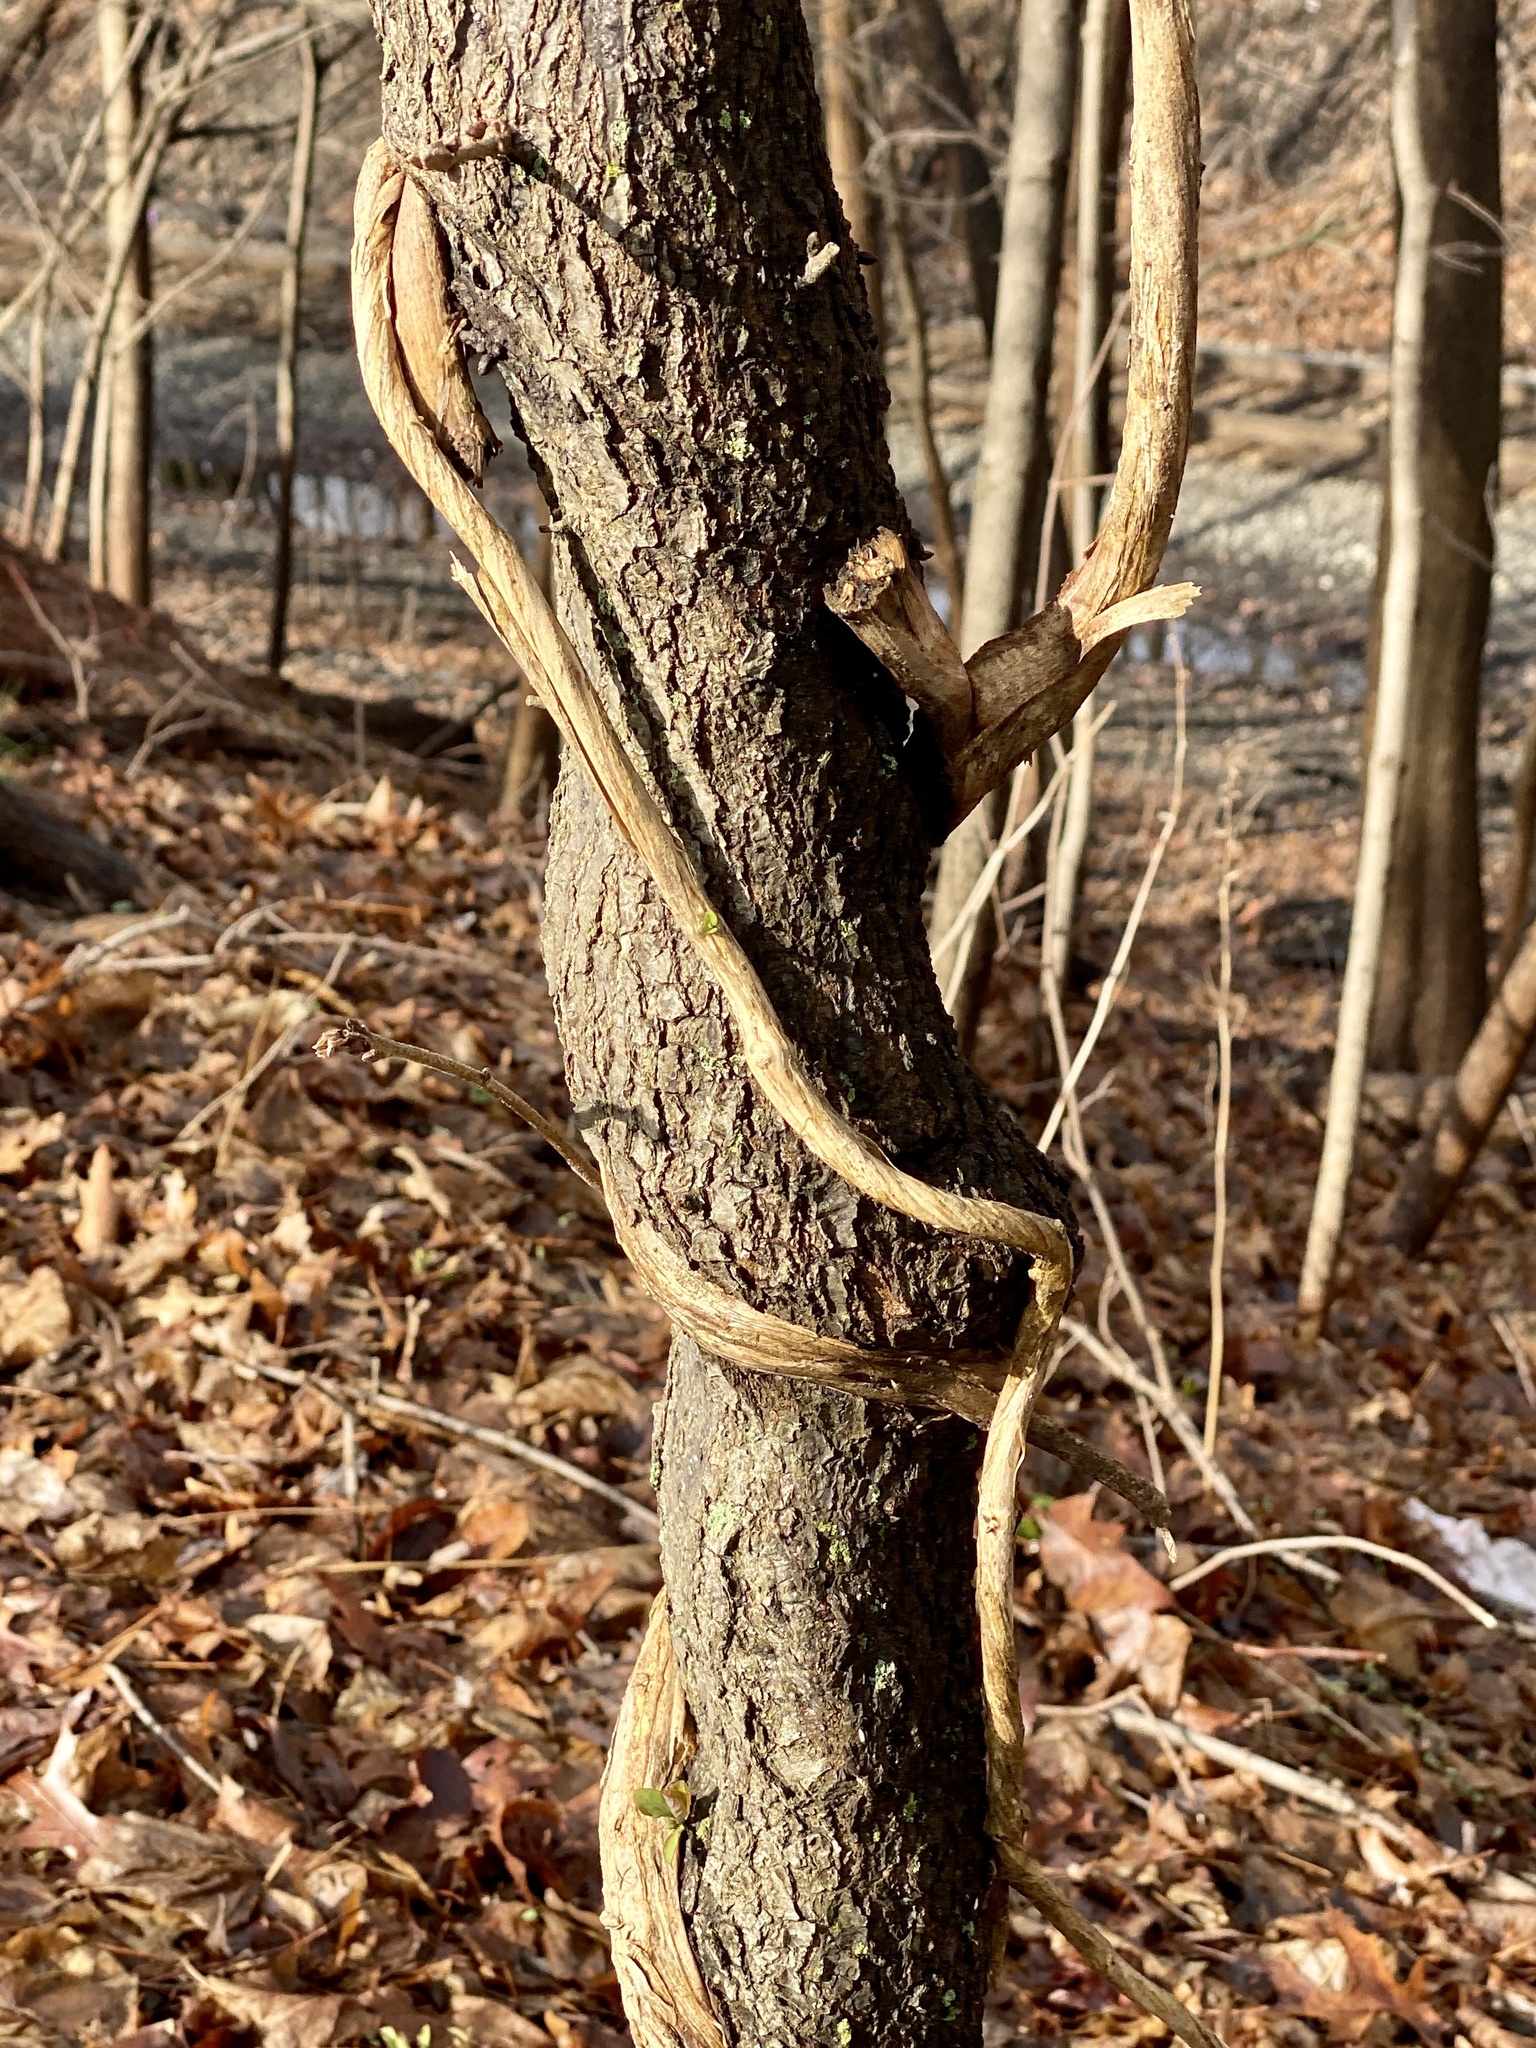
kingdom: Plantae
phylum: Tracheophyta
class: Magnoliopsida
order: Dipsacales
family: Caprifoliaceae
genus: Lonicera
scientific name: Lonicera japonica
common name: Japanese honeysuckle
